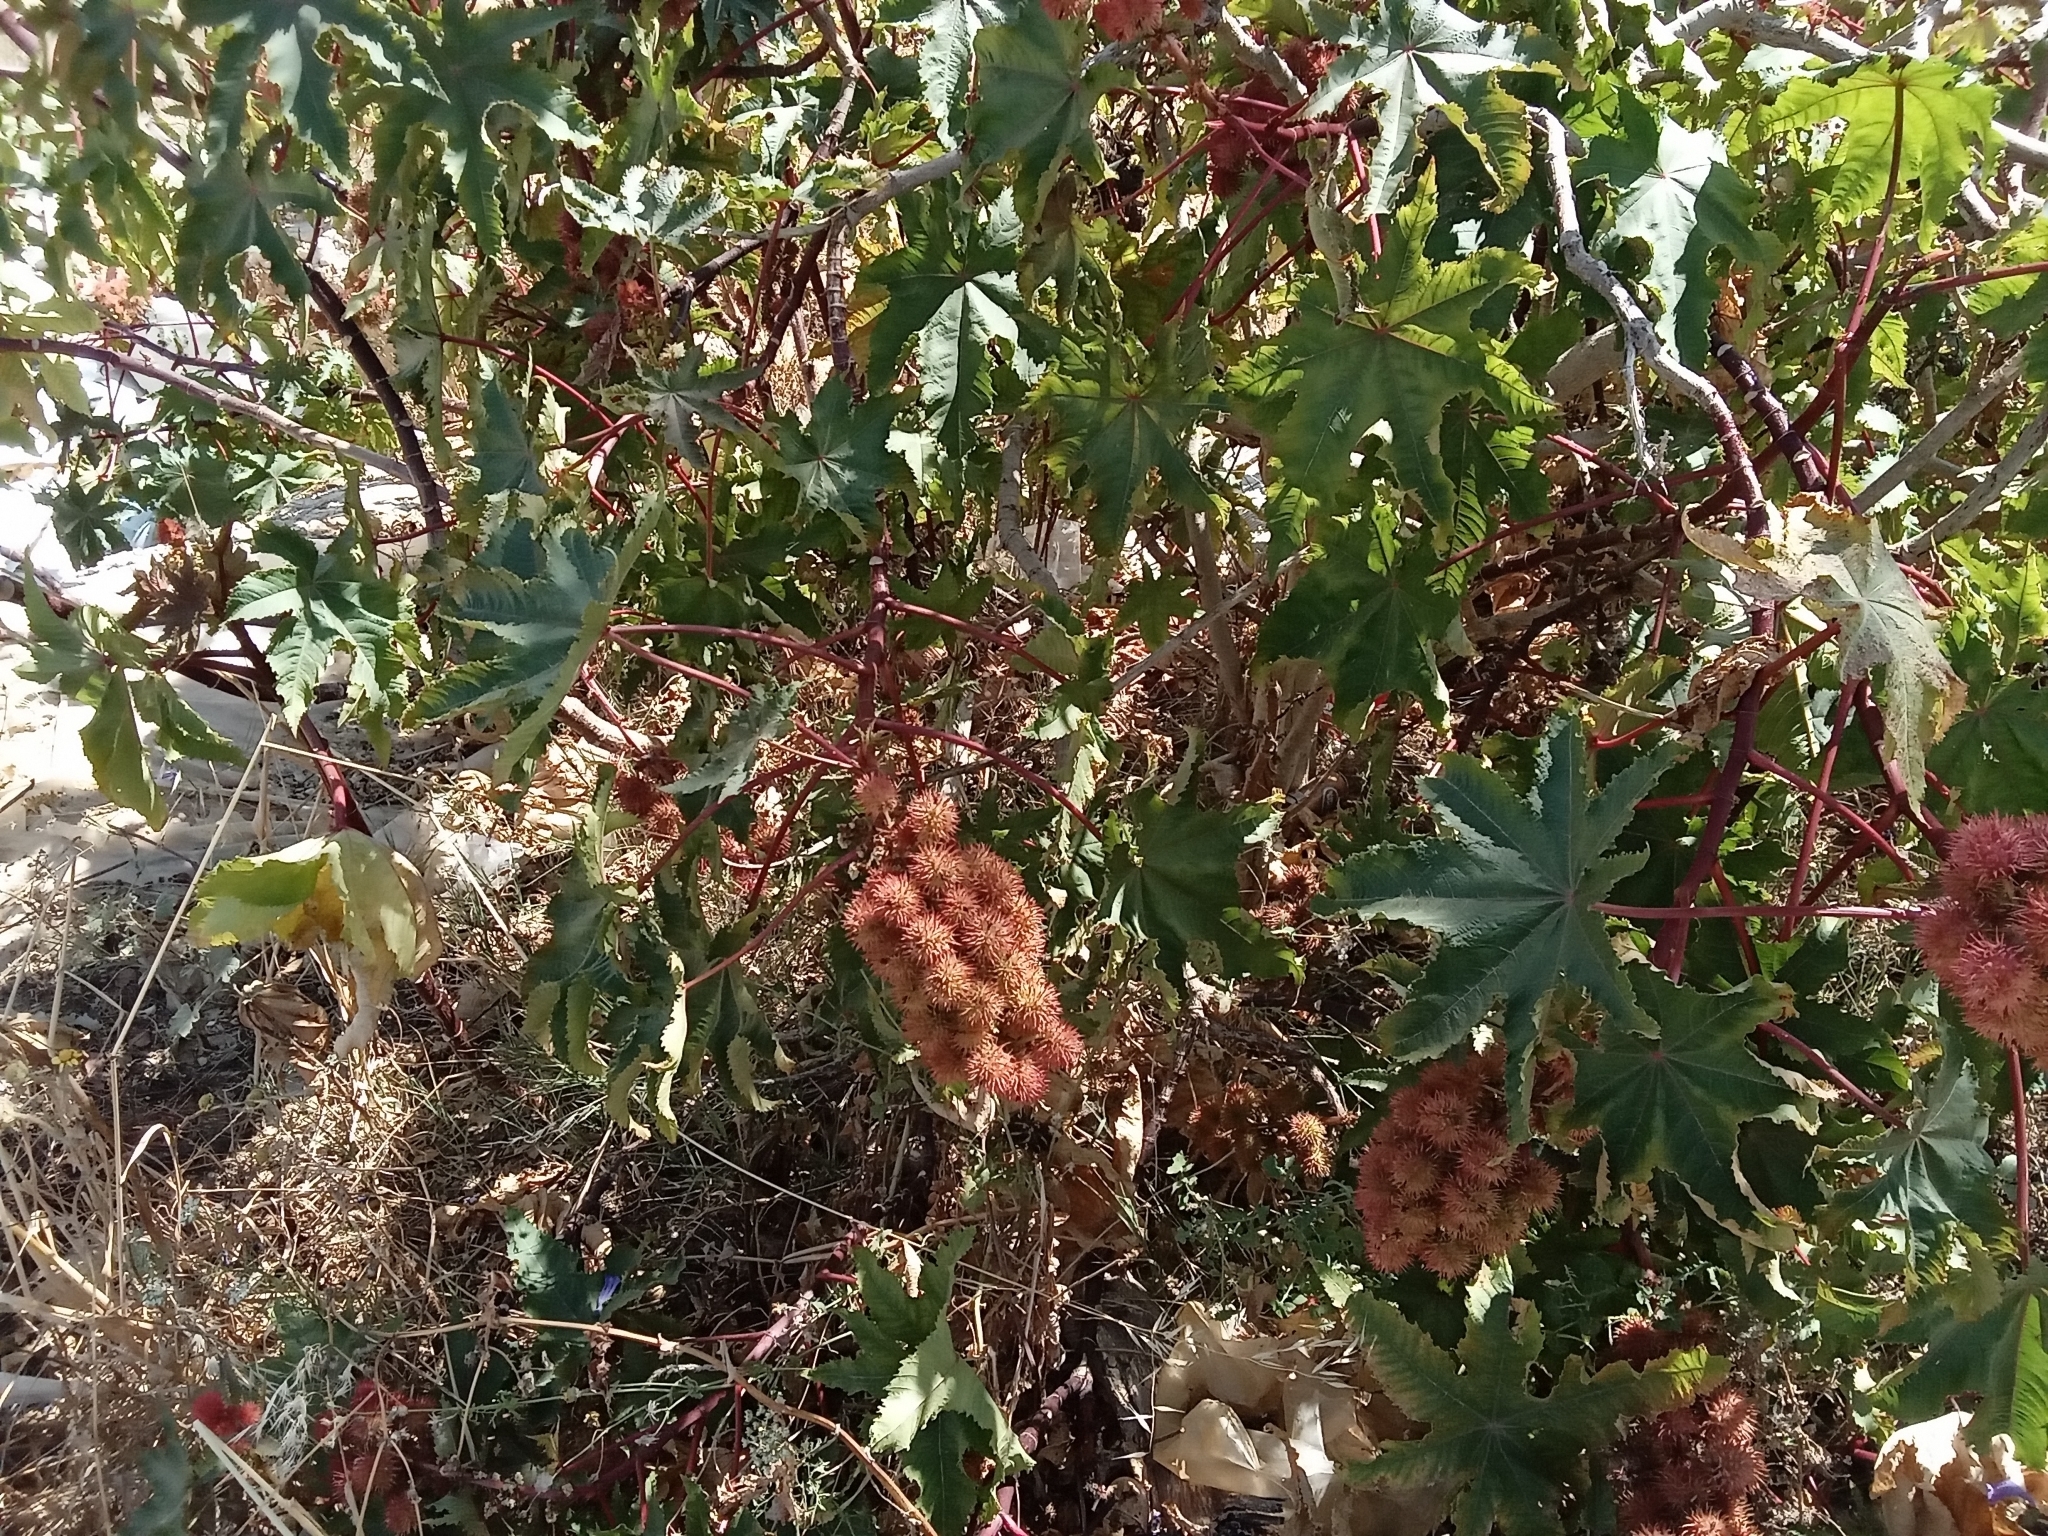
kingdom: Plantae
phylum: Tracheophyta
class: Magnoliopsida
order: Malpighiales
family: Euphorbiaceae
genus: Ricinus
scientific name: Ricinus communis
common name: Castor-oil-plant
